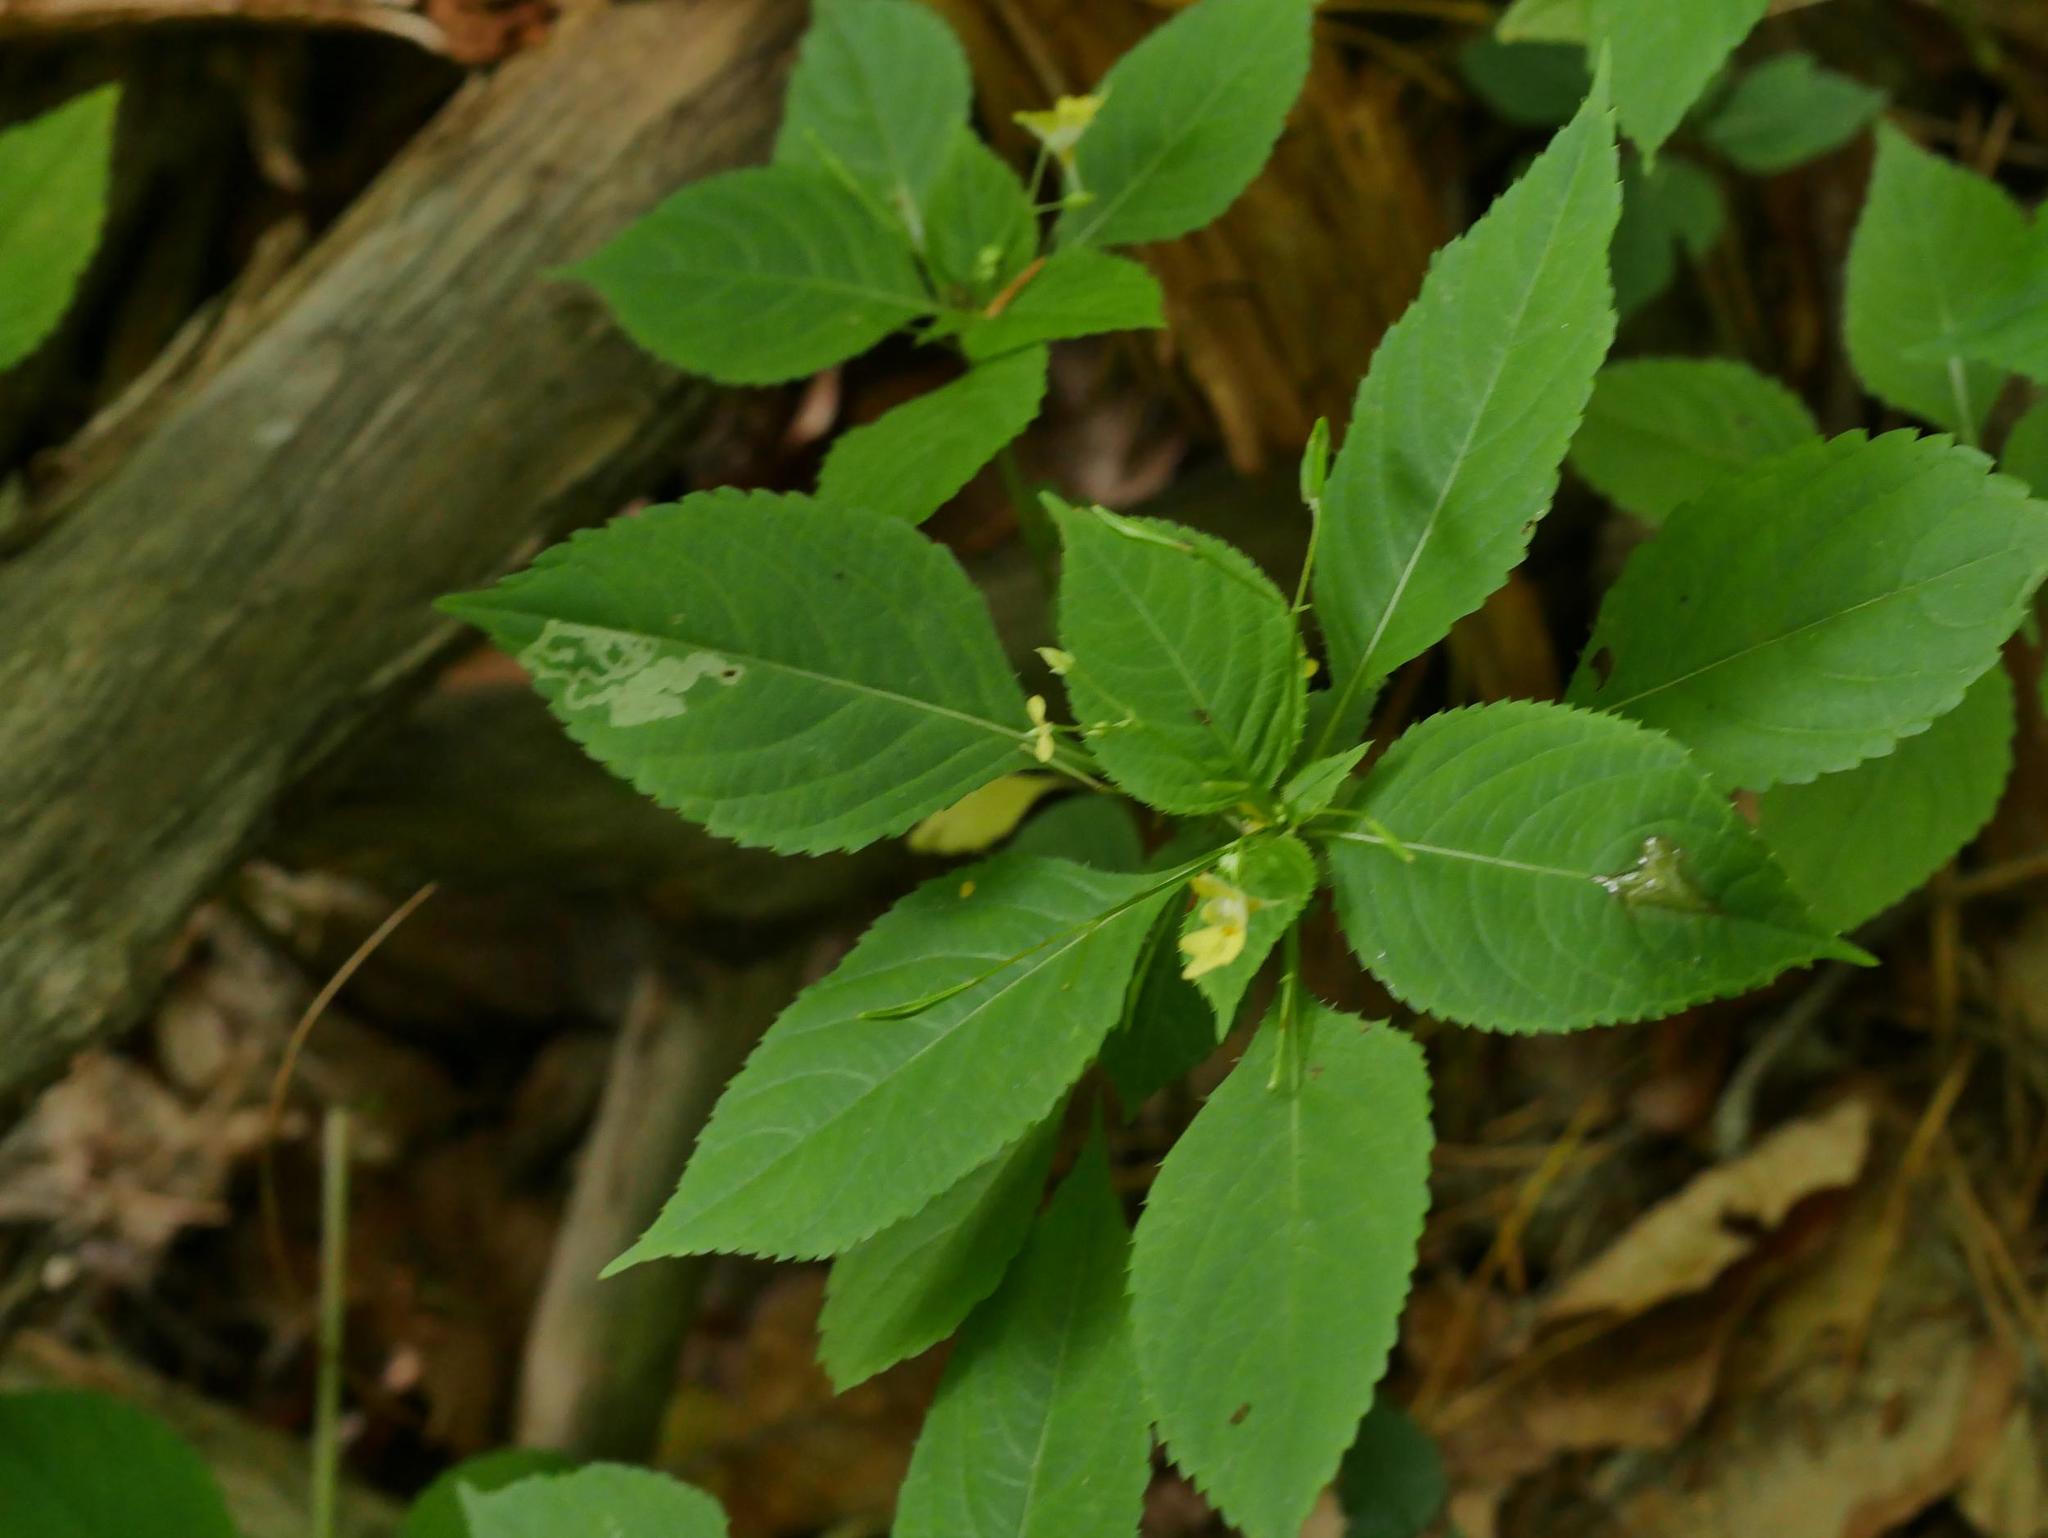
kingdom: Plantae
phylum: Tracheophyta
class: Magnoliopsida
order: Ericales
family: Balsaminaceae
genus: Impatiens
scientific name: Impatiens parviflora
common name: Small balsam
